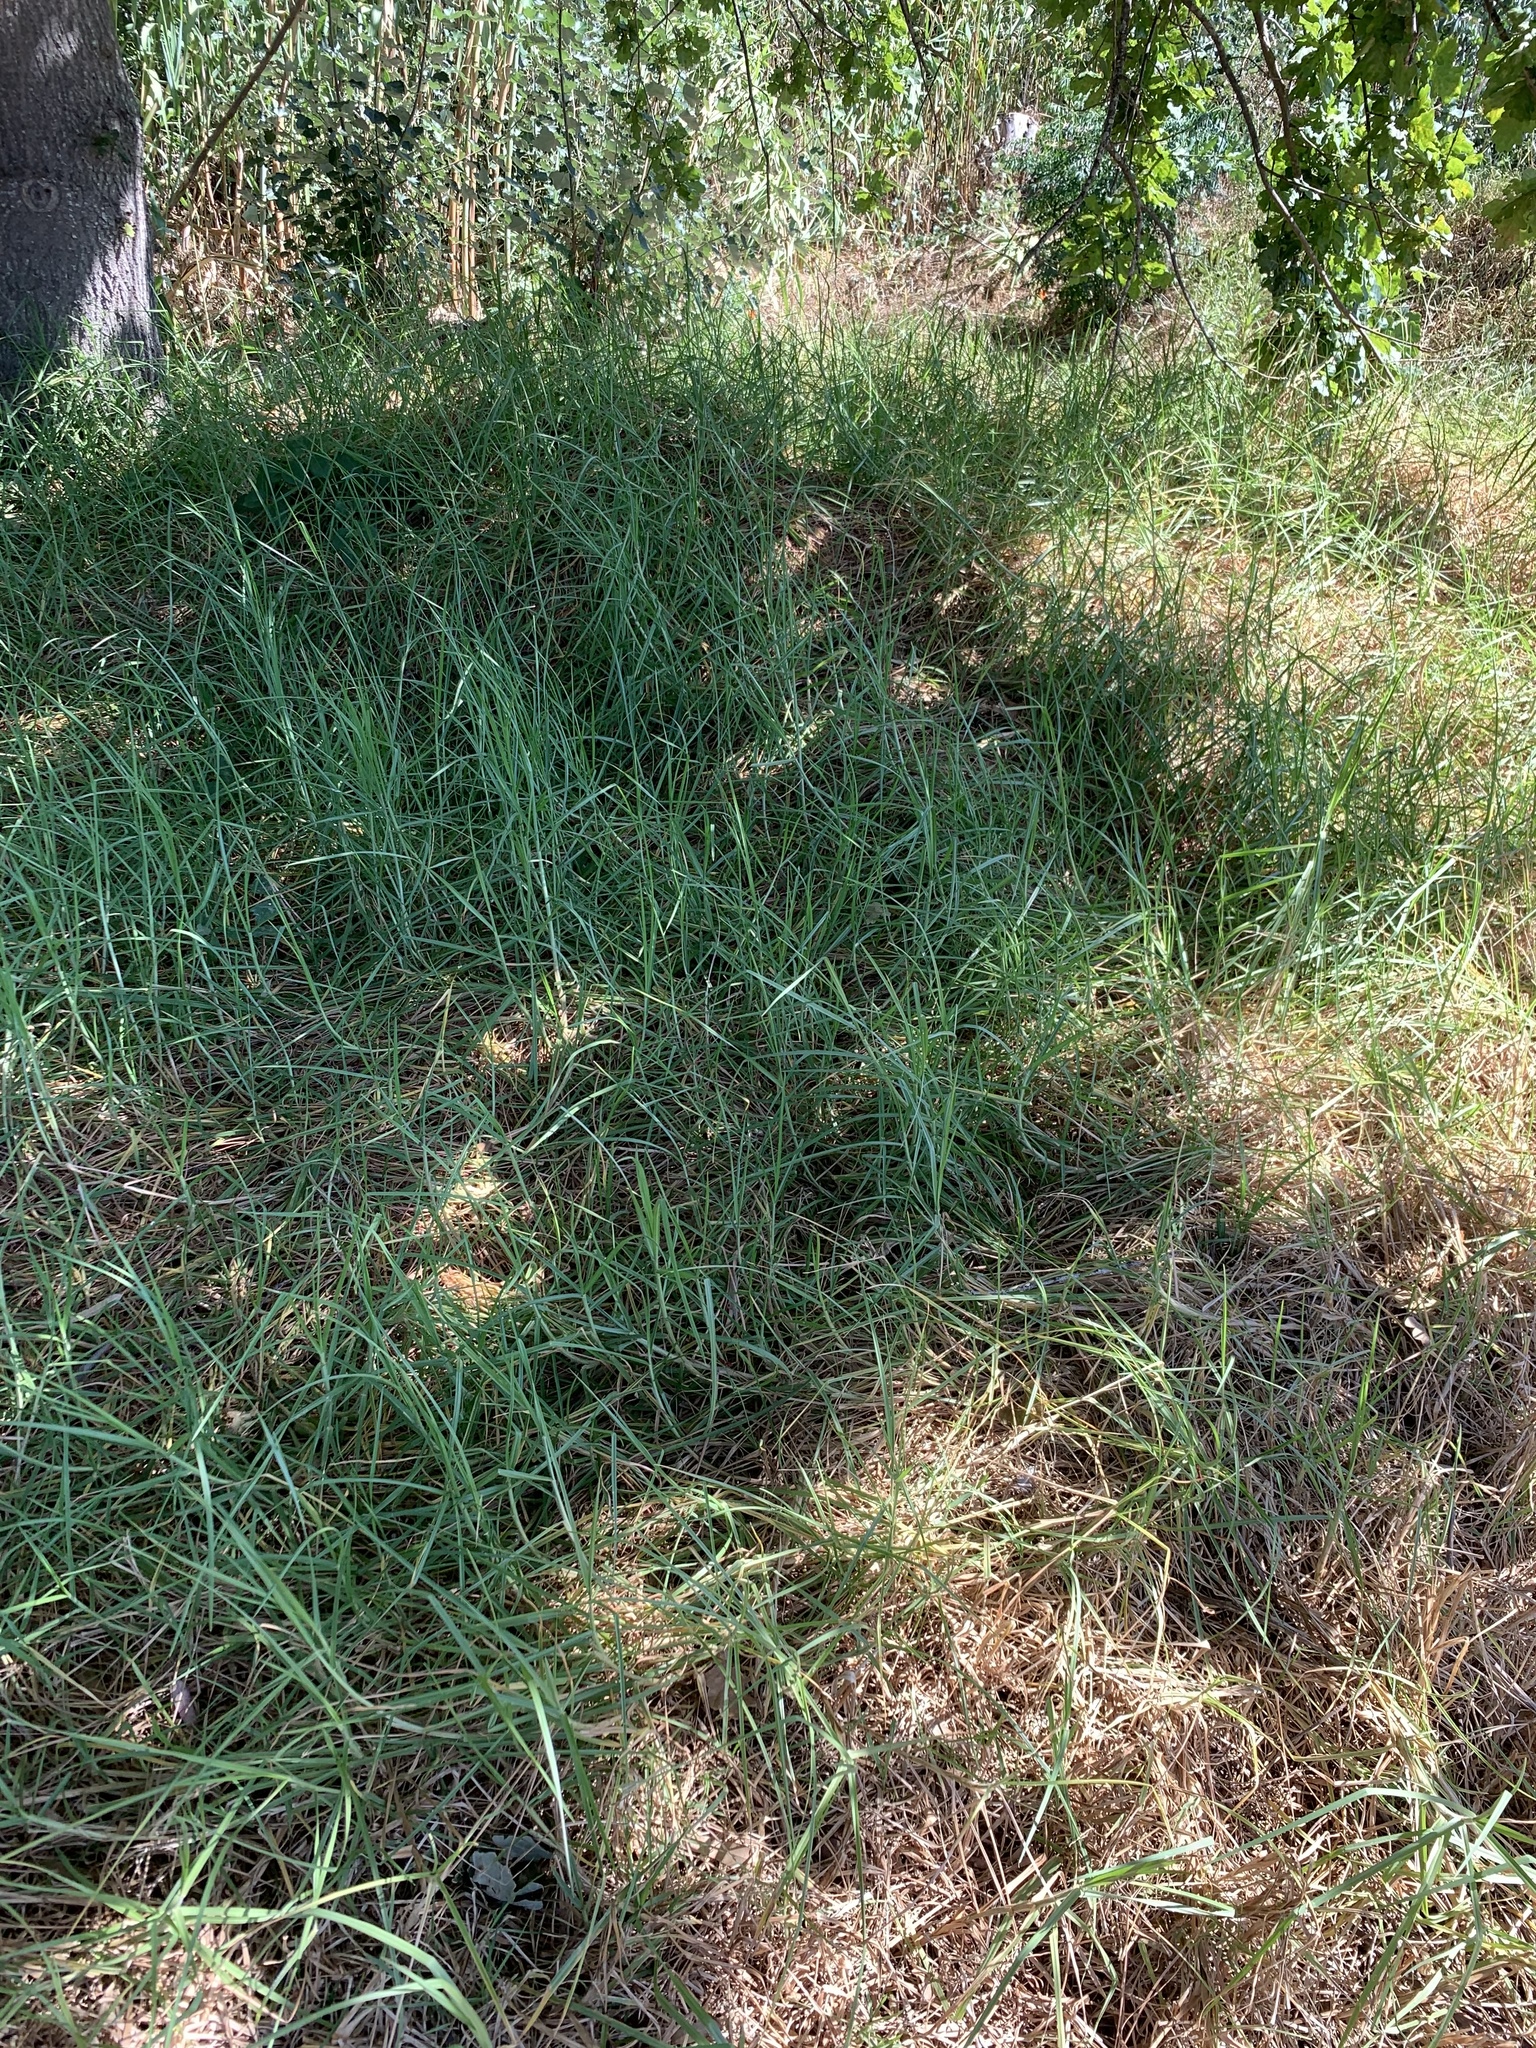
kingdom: Plantae
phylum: Tracheophyta
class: Liliopsida
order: Poales
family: Poaceae
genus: Cenchrus
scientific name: Cenchrus clandestinus
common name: Kikuyugrass
